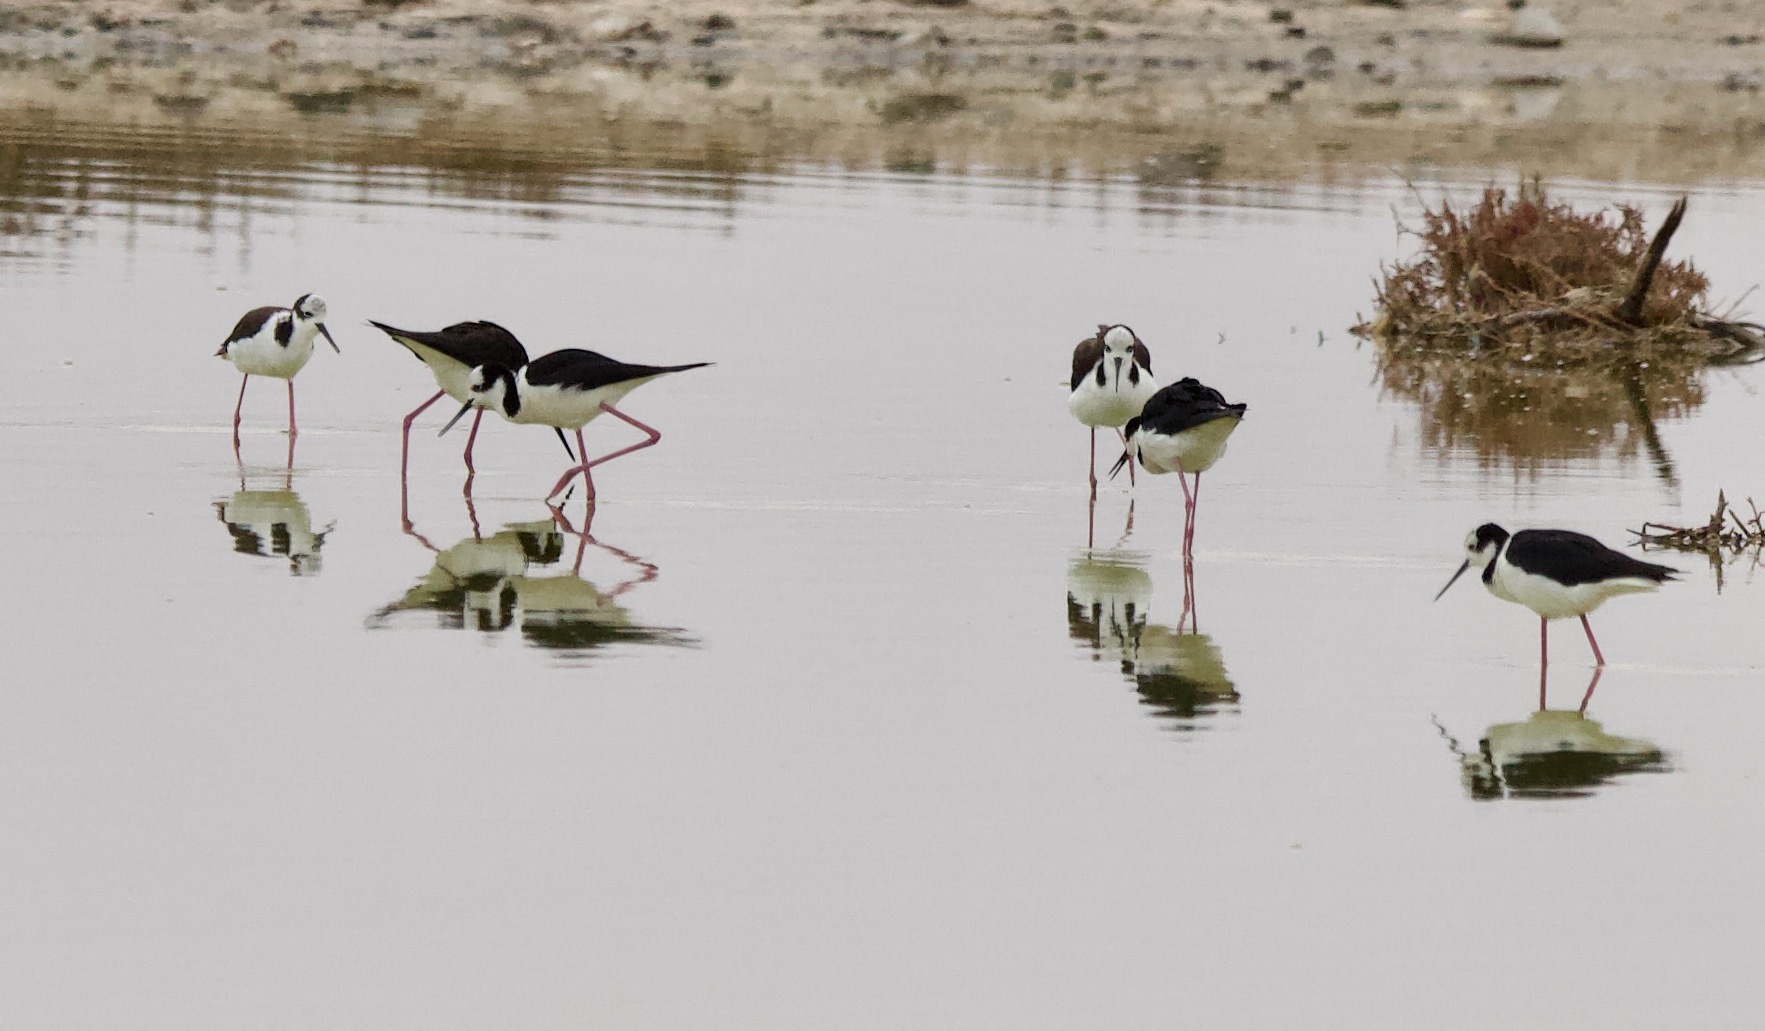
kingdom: Animalia
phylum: Chordata
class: Aves
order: Charadriiformes
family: Recurvirostridae
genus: Himantopus
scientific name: Himantopus mexicanus
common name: Black-necked stilt
